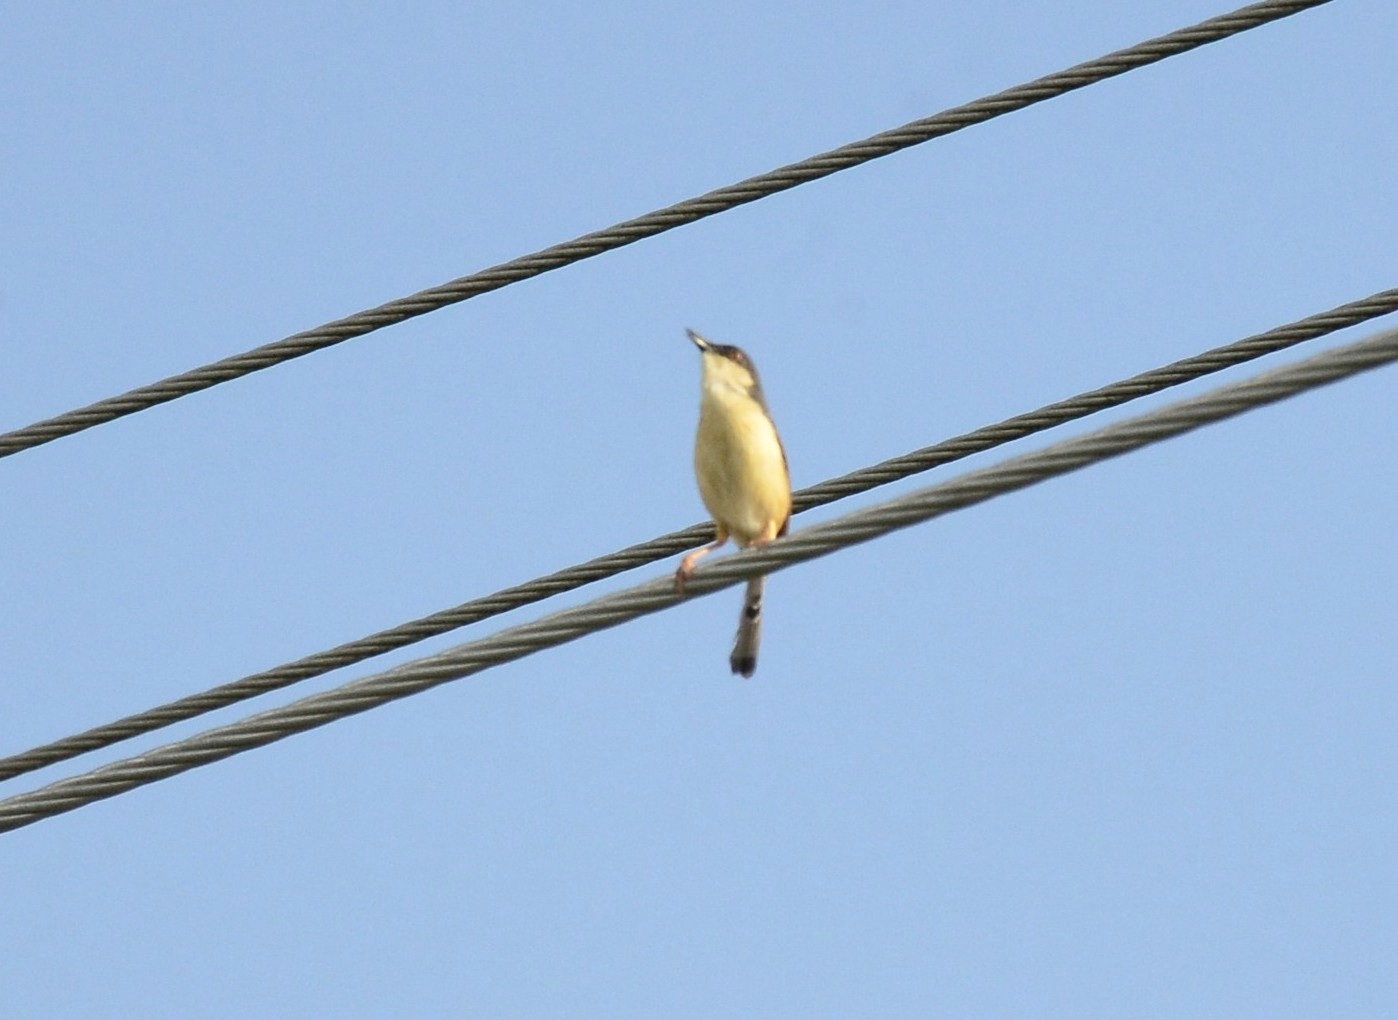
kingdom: Animalia
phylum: Chordata
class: Aves
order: Passeriformes
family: Cisticolidae
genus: Prinia
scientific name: Prinia socialis
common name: Ashy prinia
